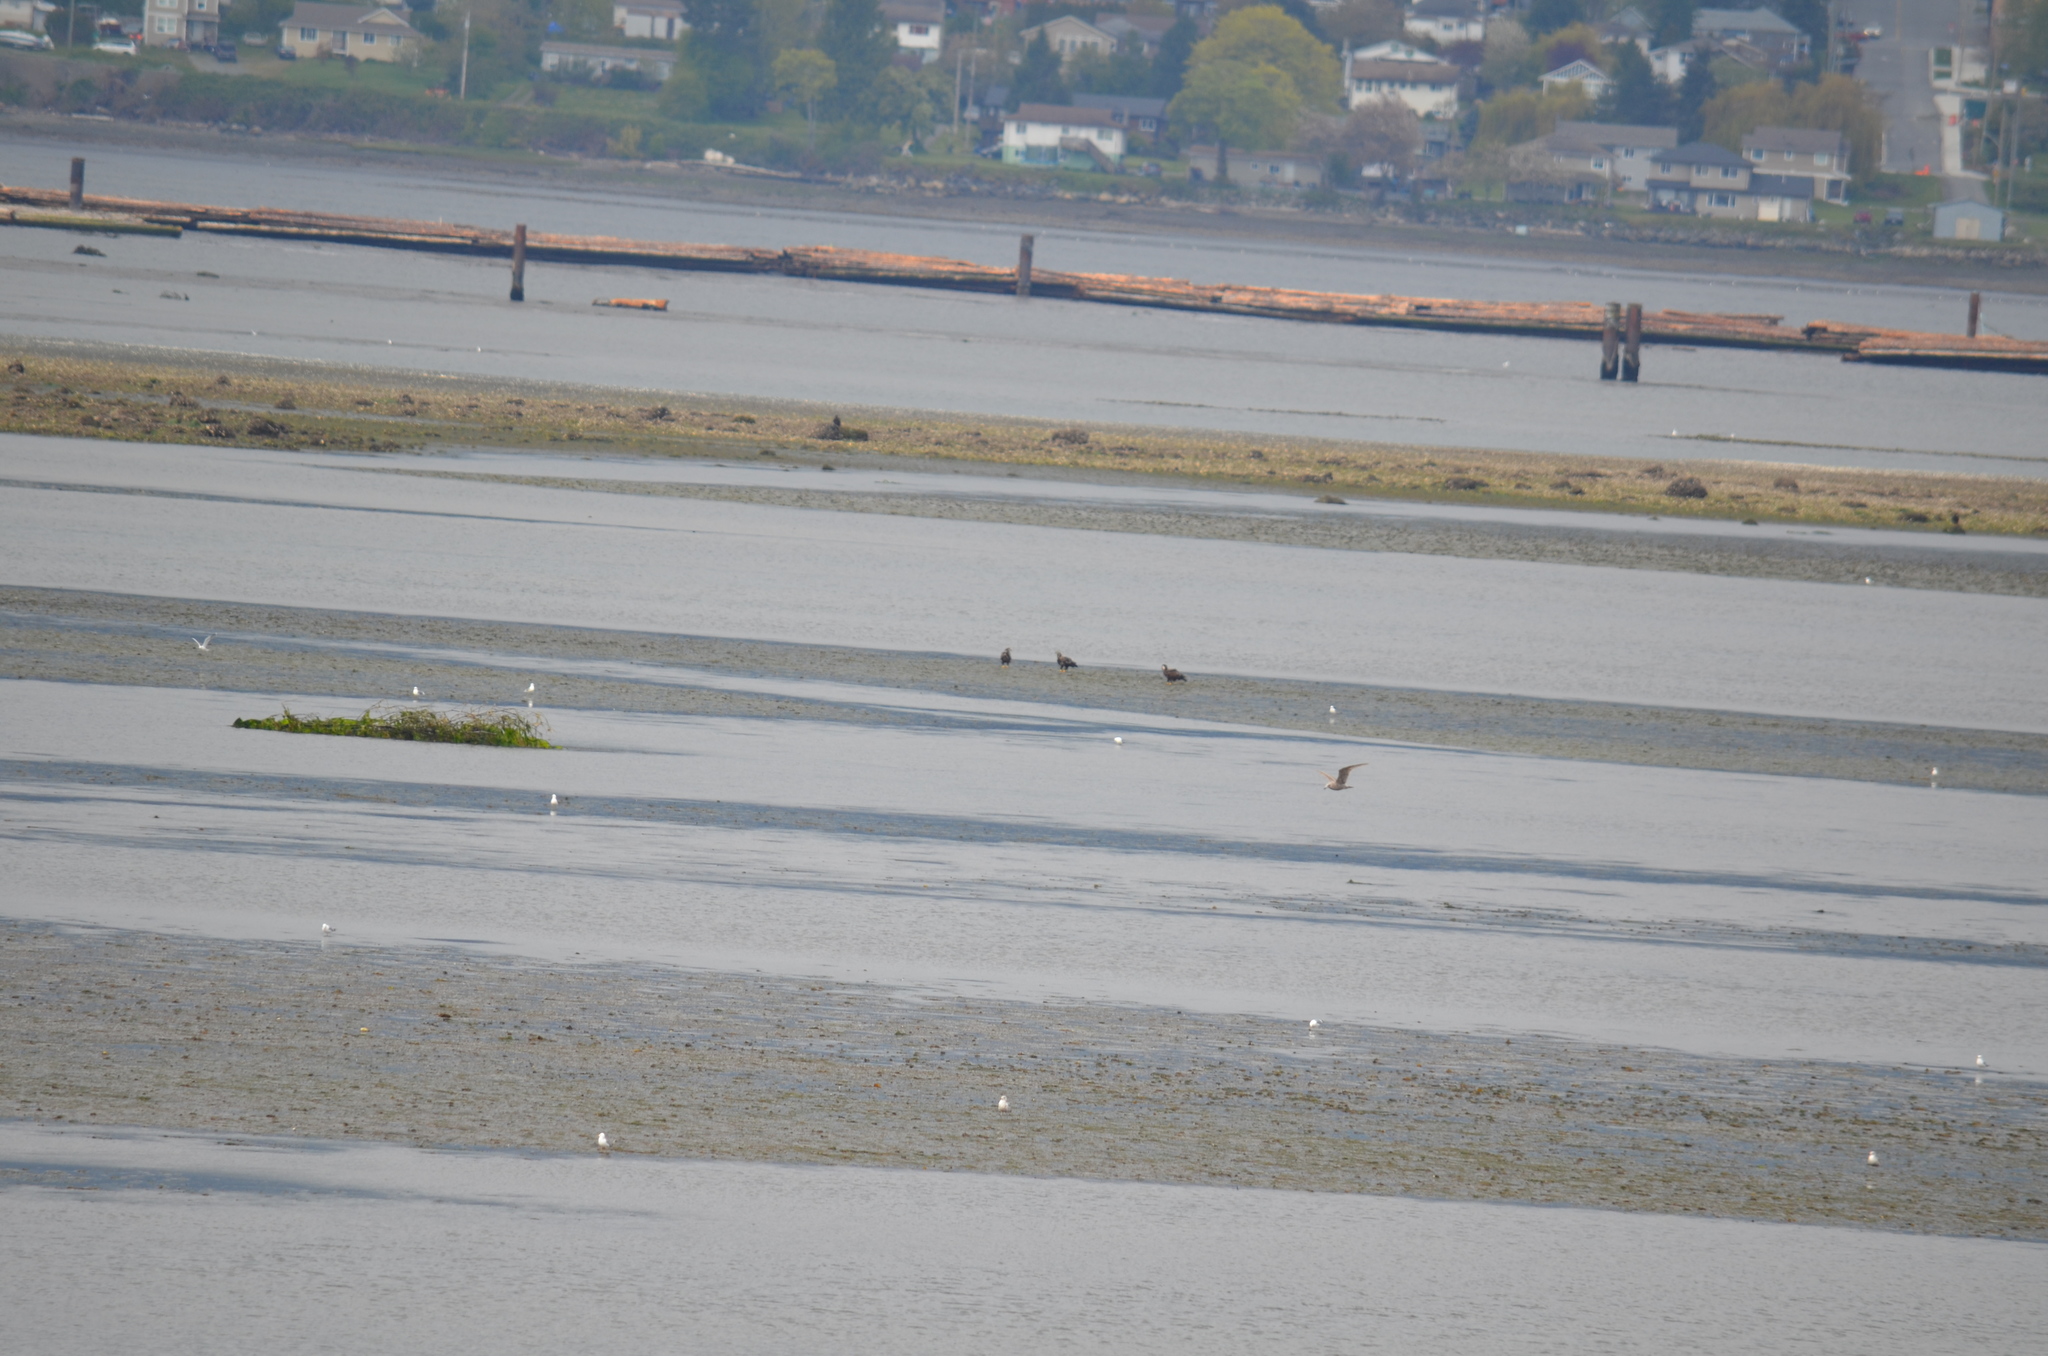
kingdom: Animalia
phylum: Chordata
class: Aves
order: Accipitriformes
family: Accipitridae
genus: Haliaeetus
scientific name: Haliaeetus leucocephalus
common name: Bald eagle
